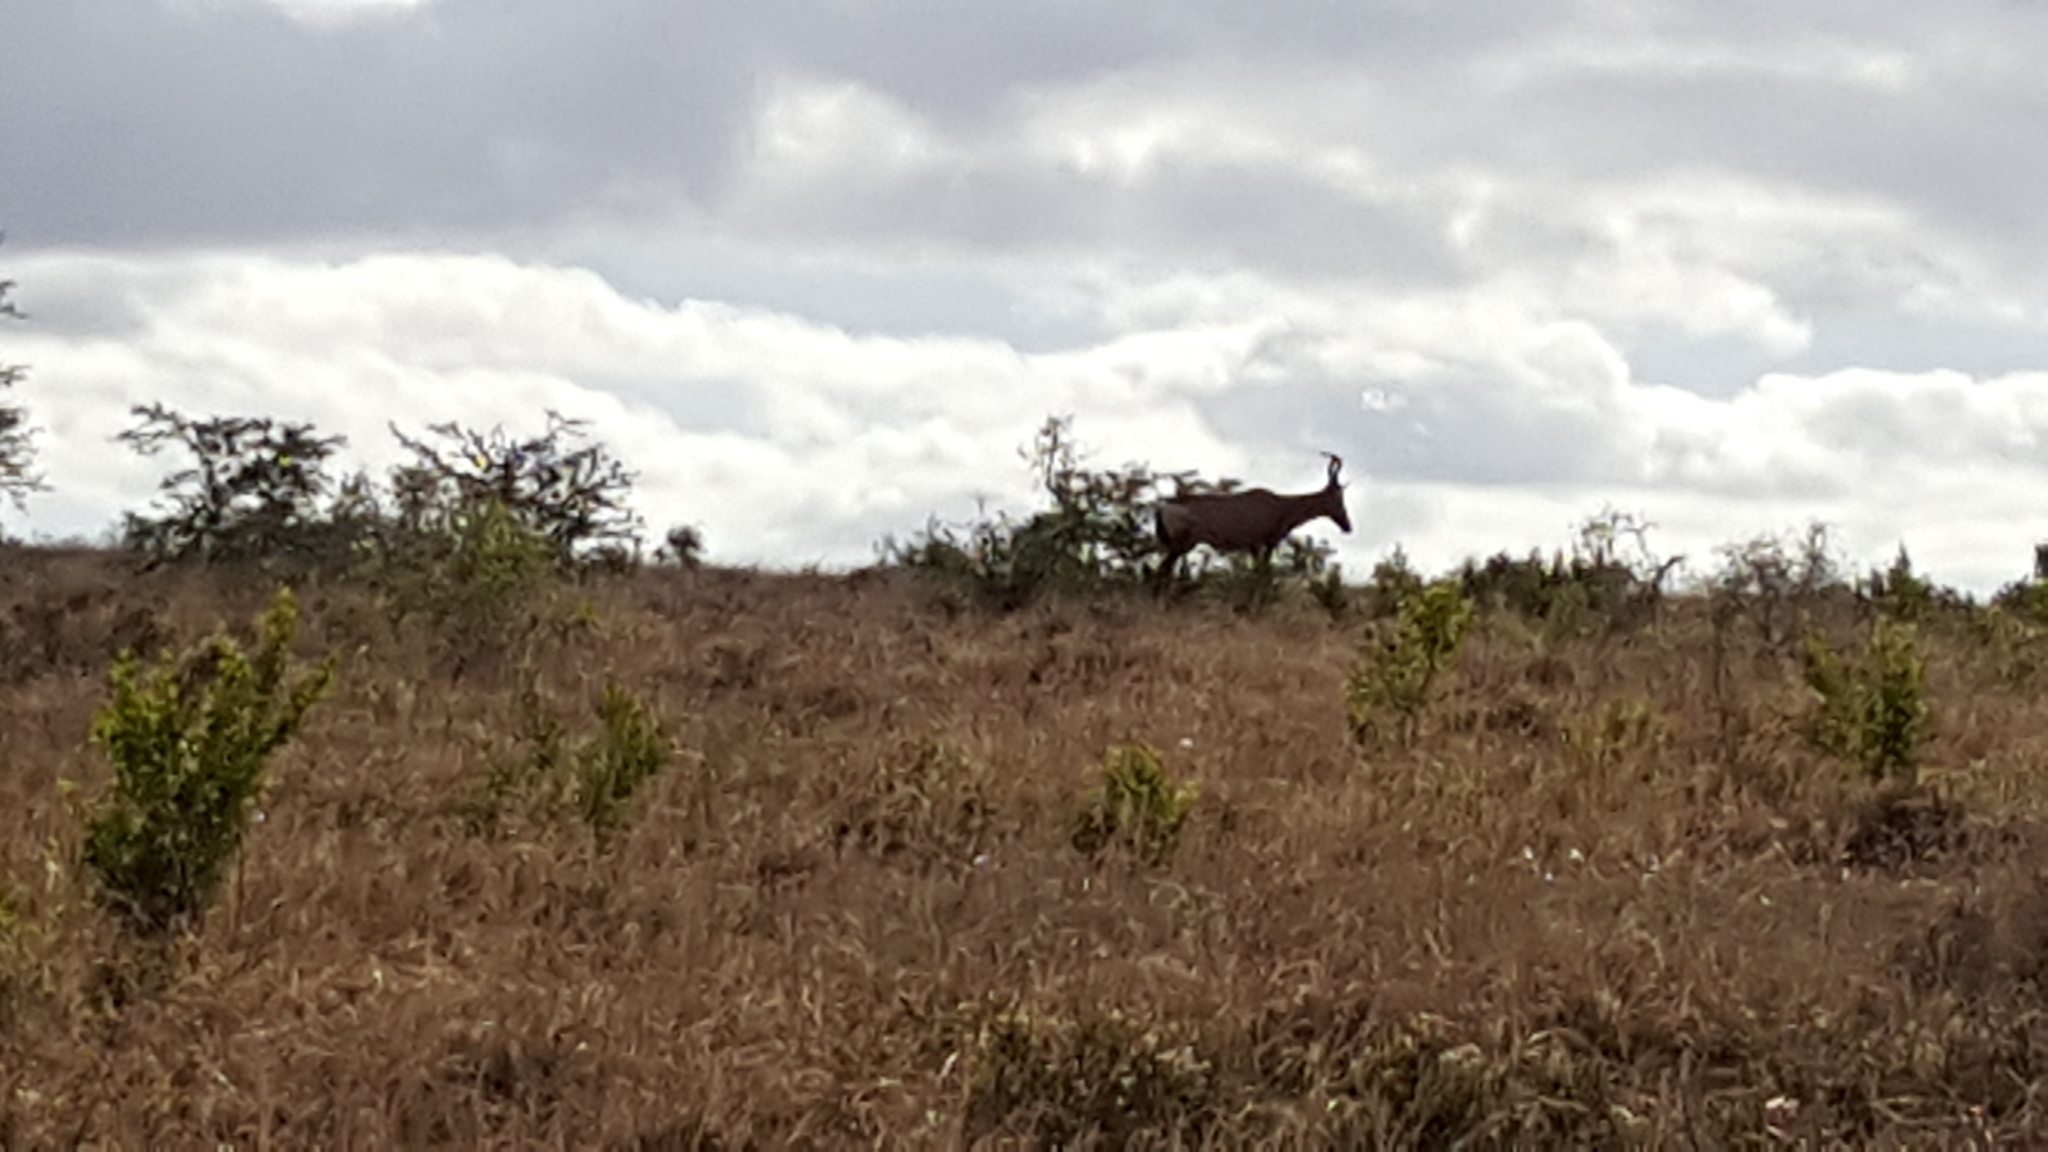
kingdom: Animalia
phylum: Chordata
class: Mammalia
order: Artiodactyla
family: Bovidae
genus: Alcelaphus
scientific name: Alcelaphus caama
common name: Red hartebeest
